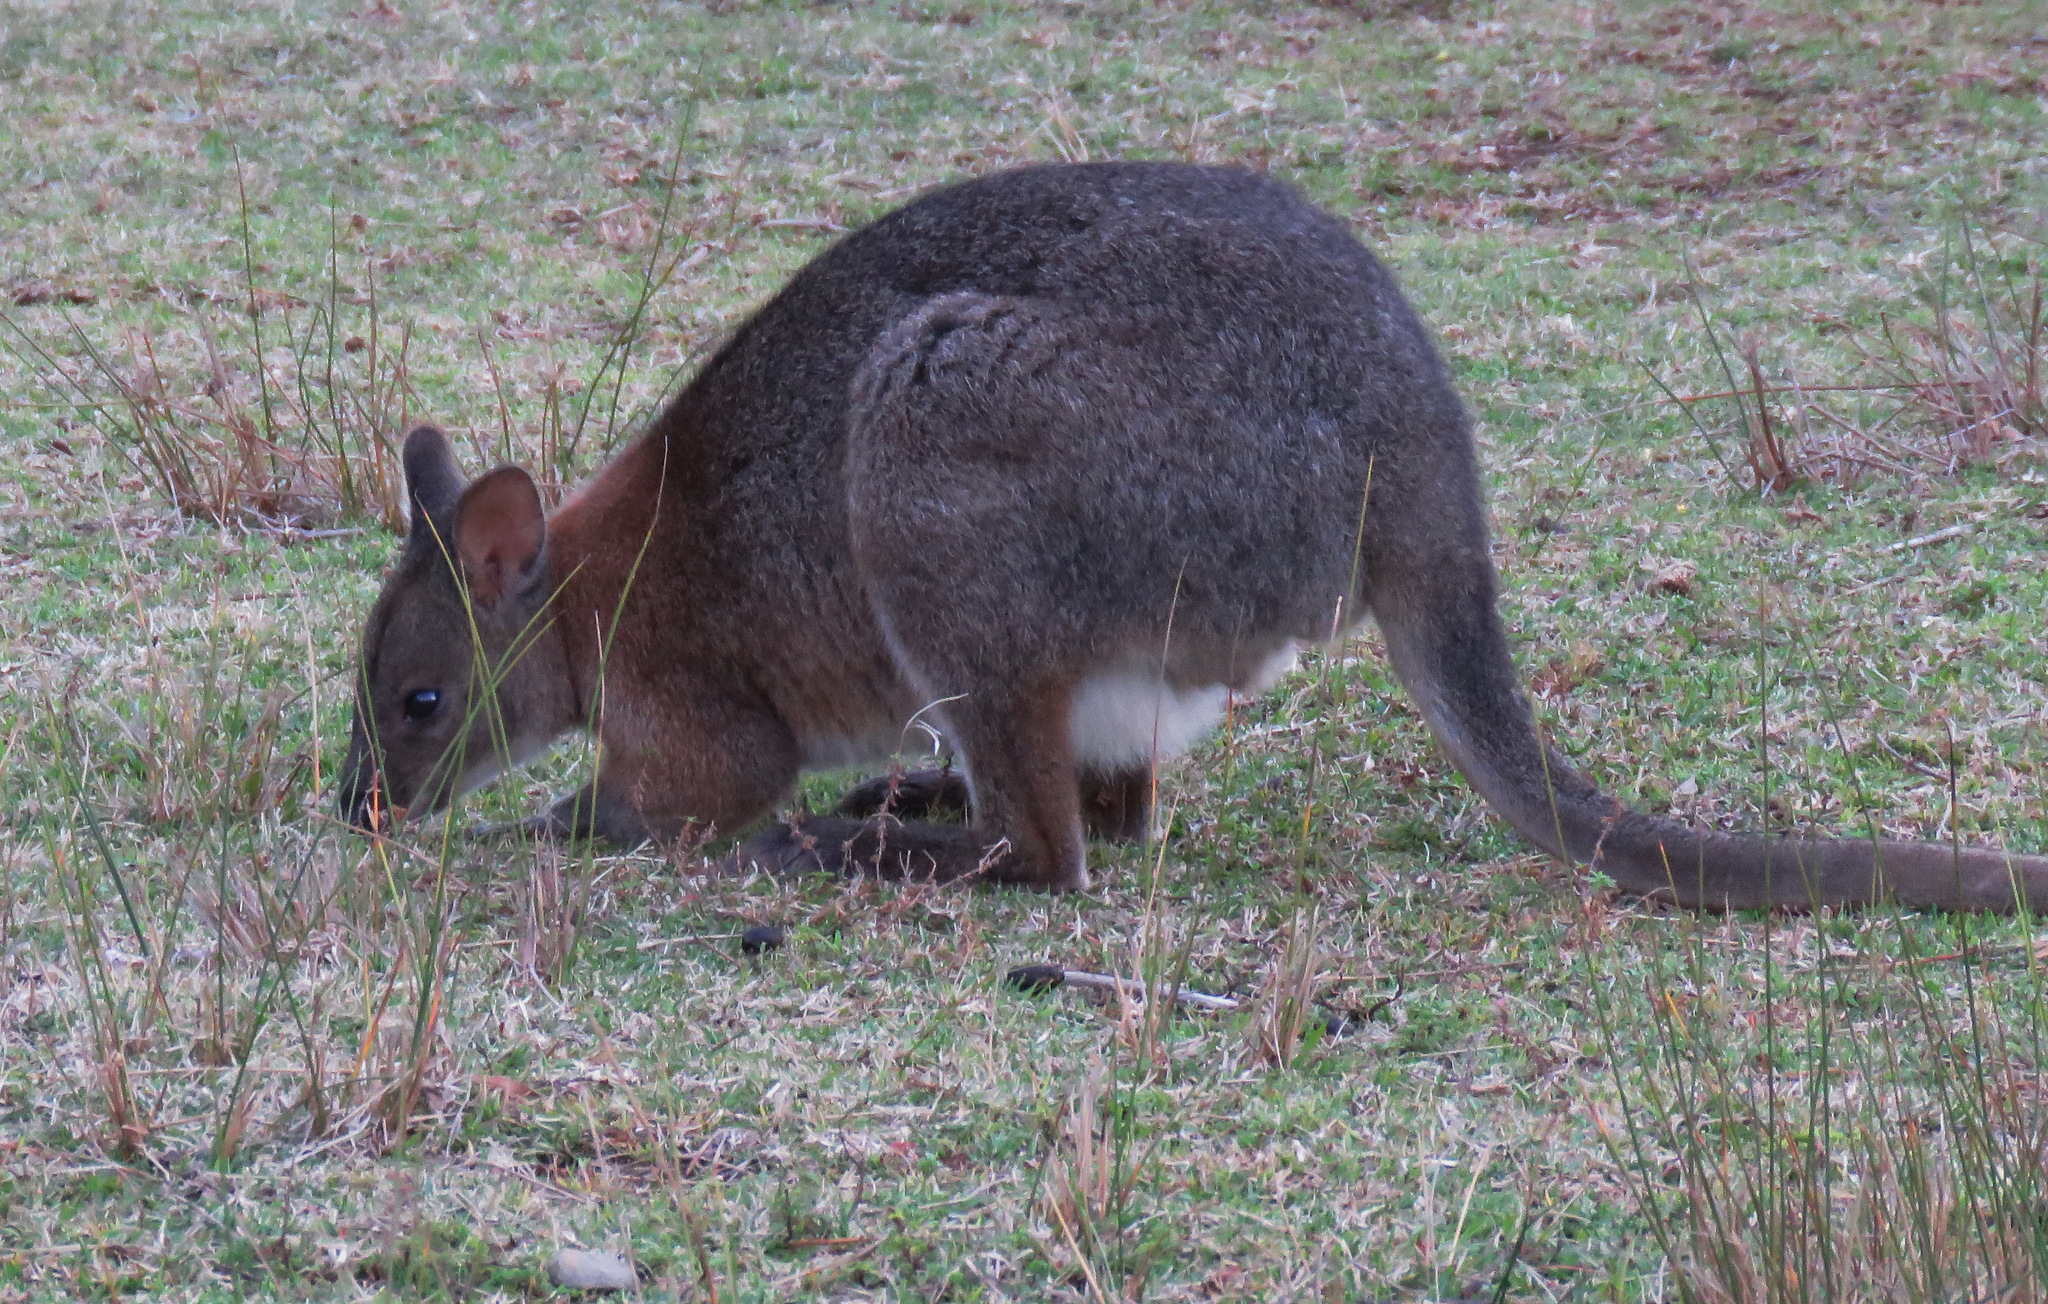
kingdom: Animalia
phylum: Chordata
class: Mammalia
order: Diprotodontia
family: Macropodidae
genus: Thylogale
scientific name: Thylogale thetis
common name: Red-necked pademelon
